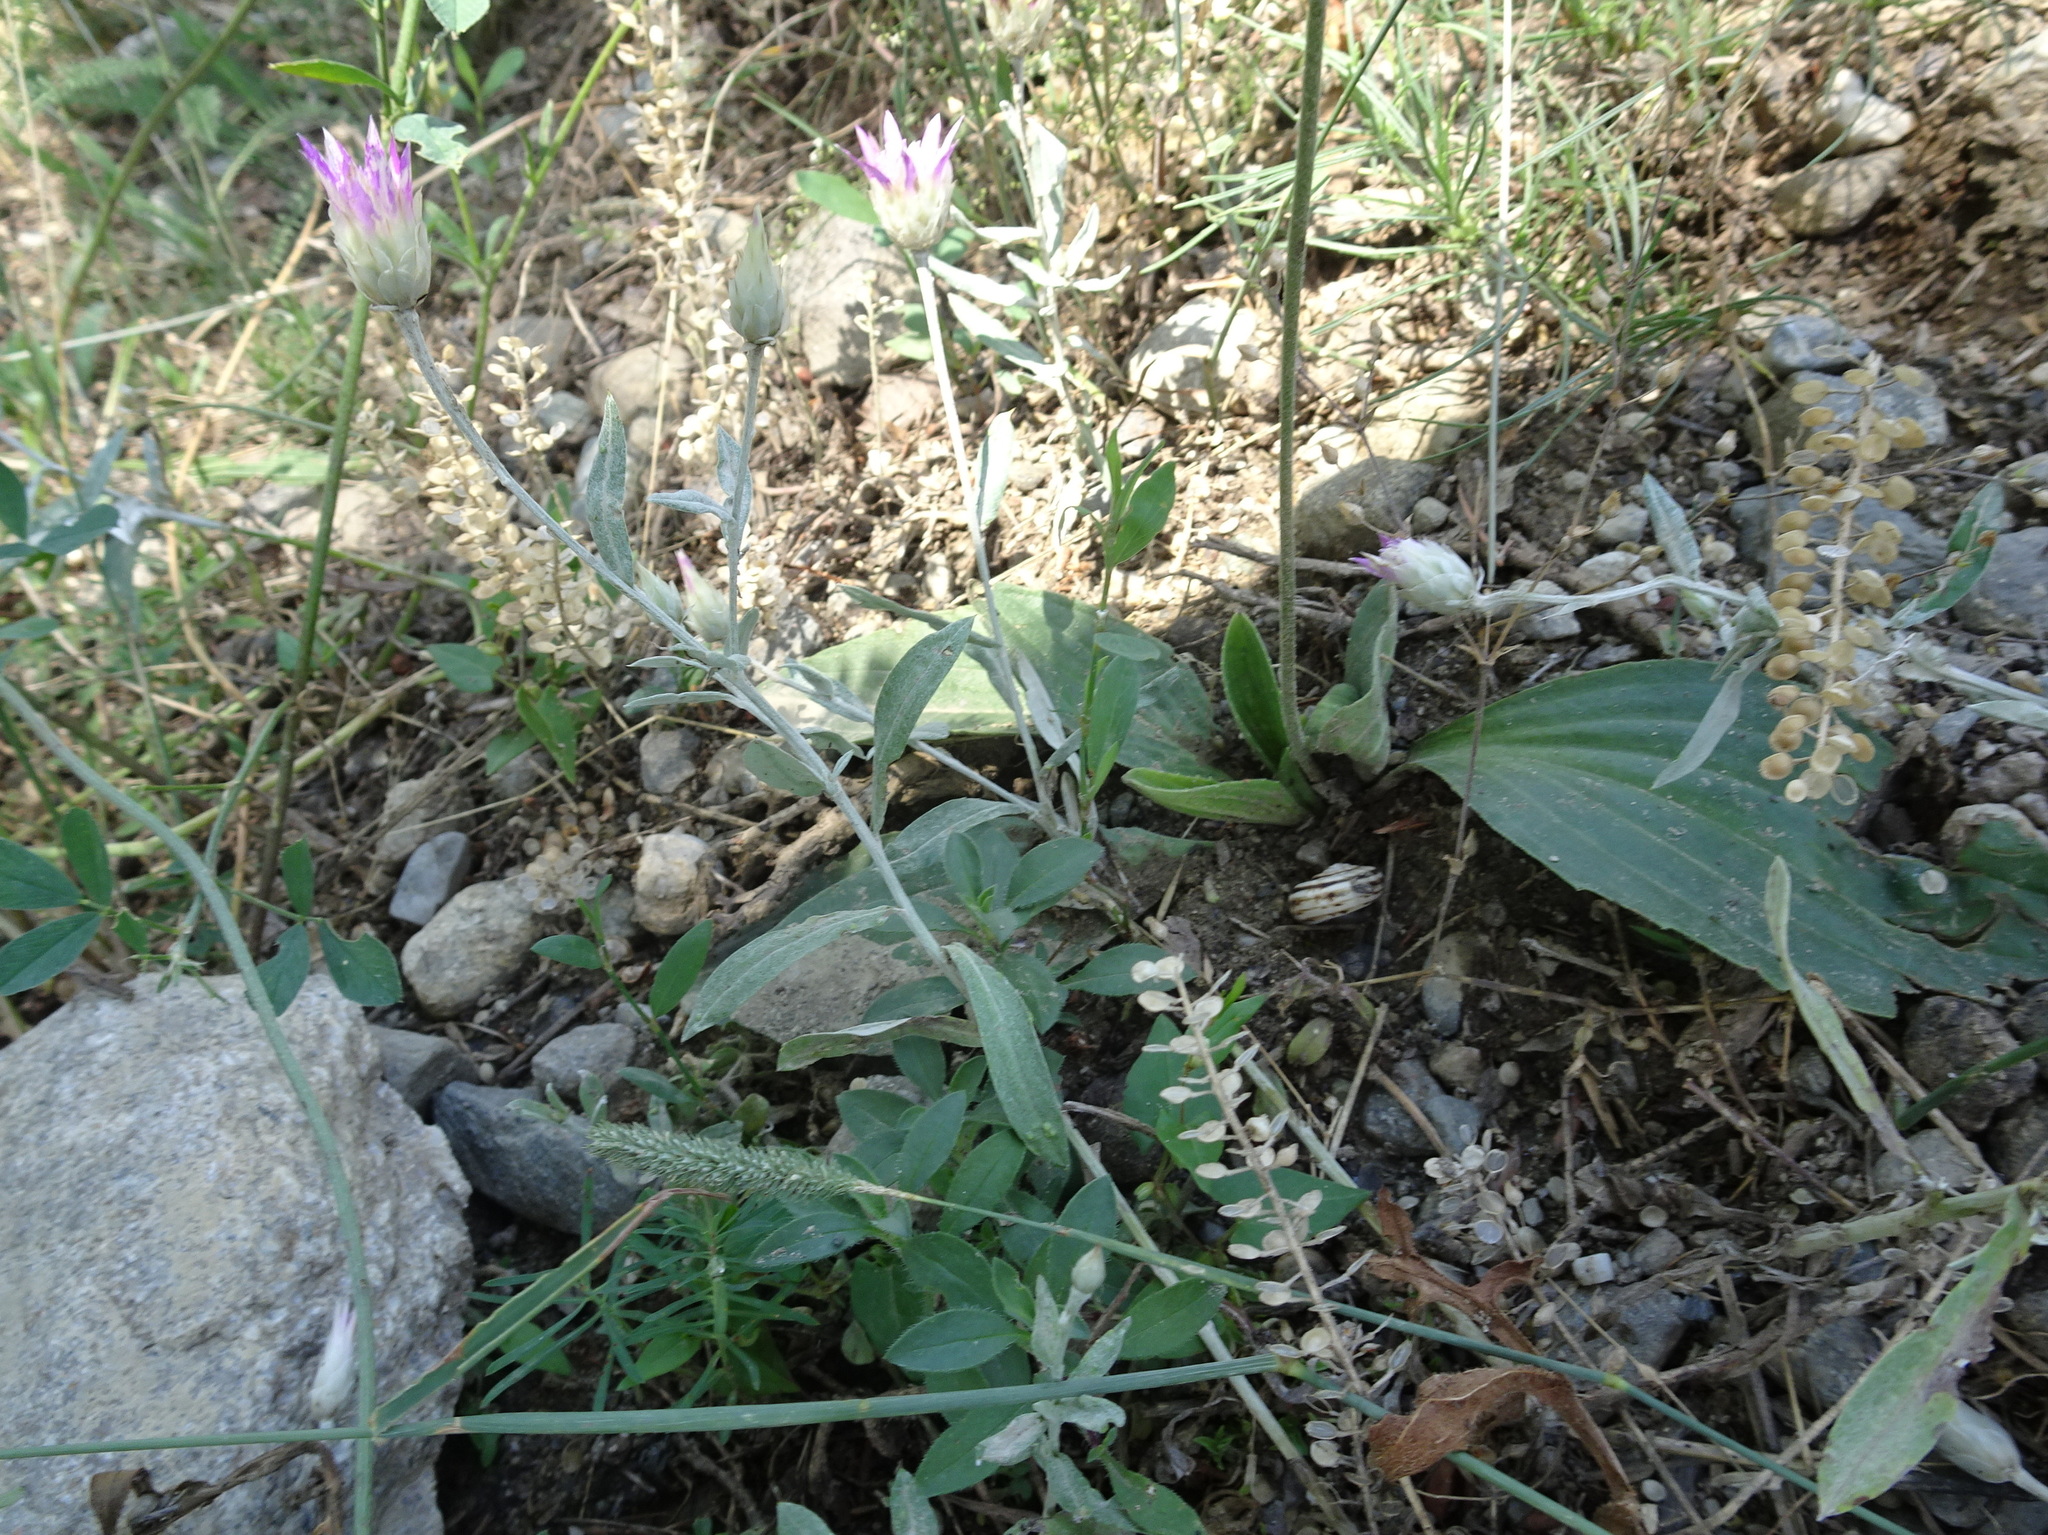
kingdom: Plantae
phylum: Tracheophyta
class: Magnoliopsida
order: Asterales
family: Asteraceae
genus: Xeranthemum
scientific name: Xeranthemum inapertum
